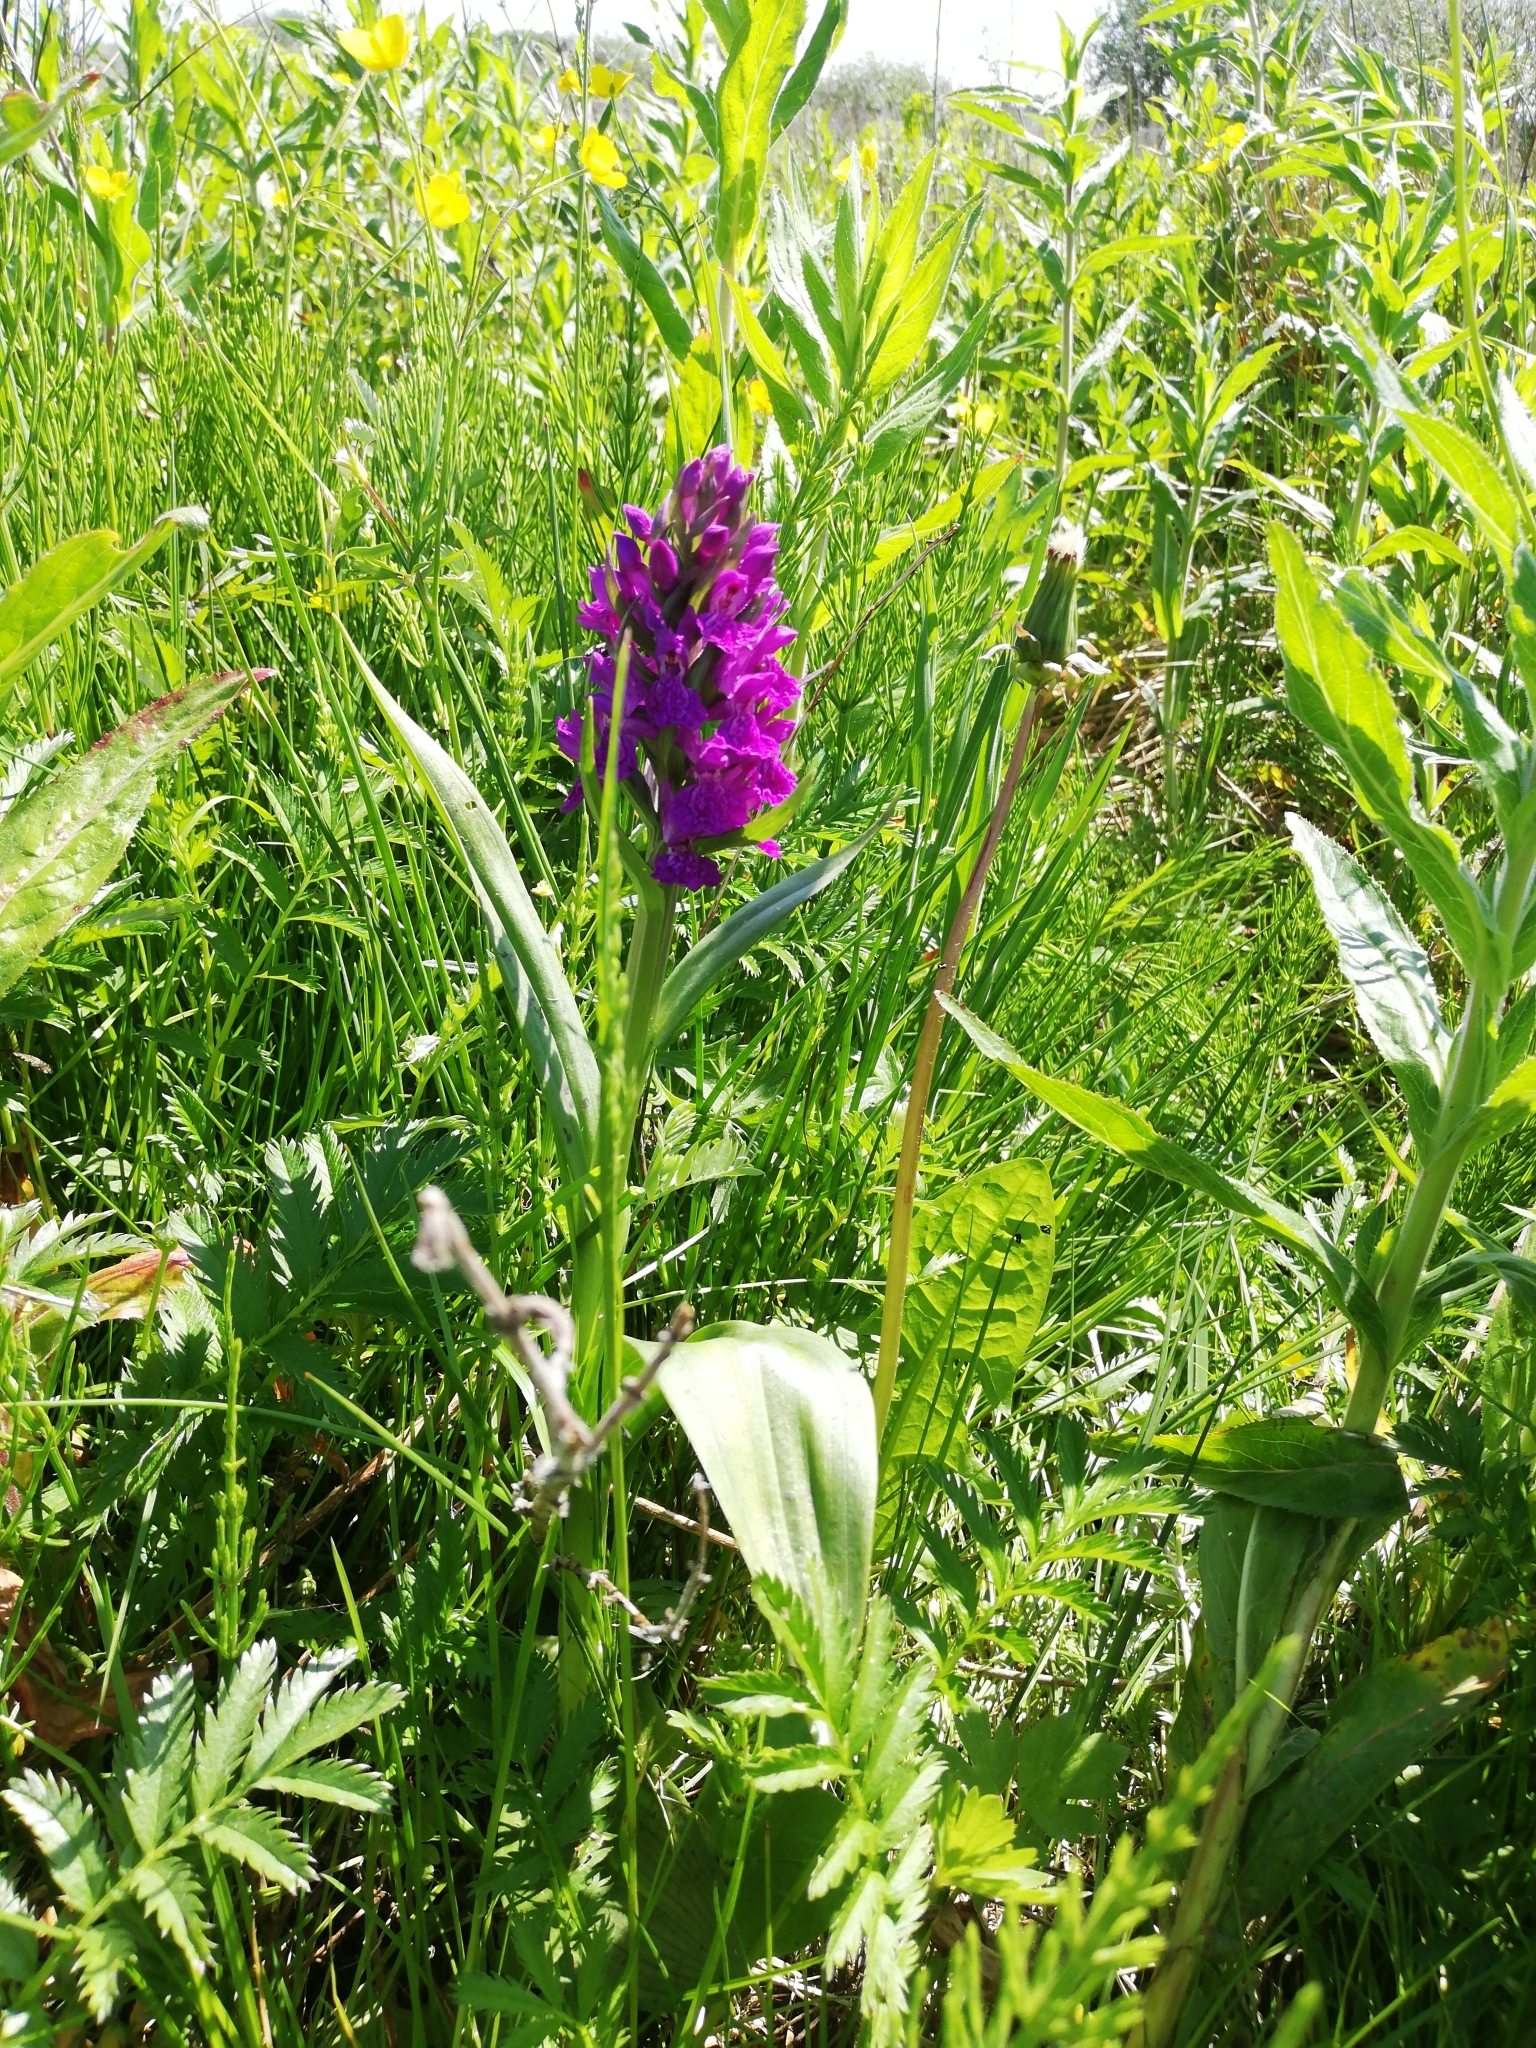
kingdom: Plantae
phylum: Tracheophyta
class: Liliopsida
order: Asparagales
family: Orchidaceae
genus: Dactylorhiza
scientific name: Dactylorhiza majalis
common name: Marsh orchid
